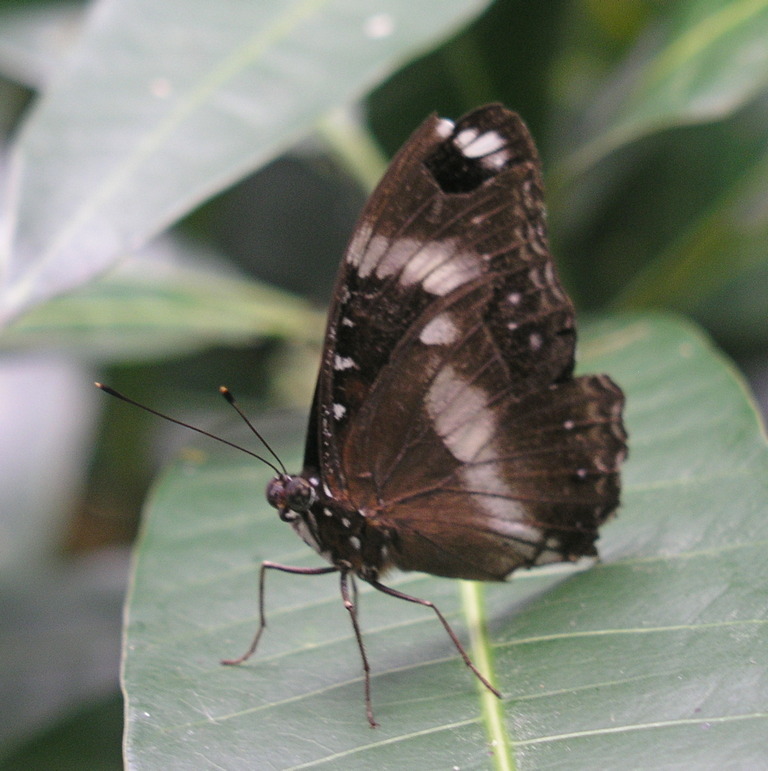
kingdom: Animalia
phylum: Arthropoda
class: Insecta
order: Lepidoptera
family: Nymphalidae
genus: Hypolimnas
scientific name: Hypolimnas bolina
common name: Great eggfly
